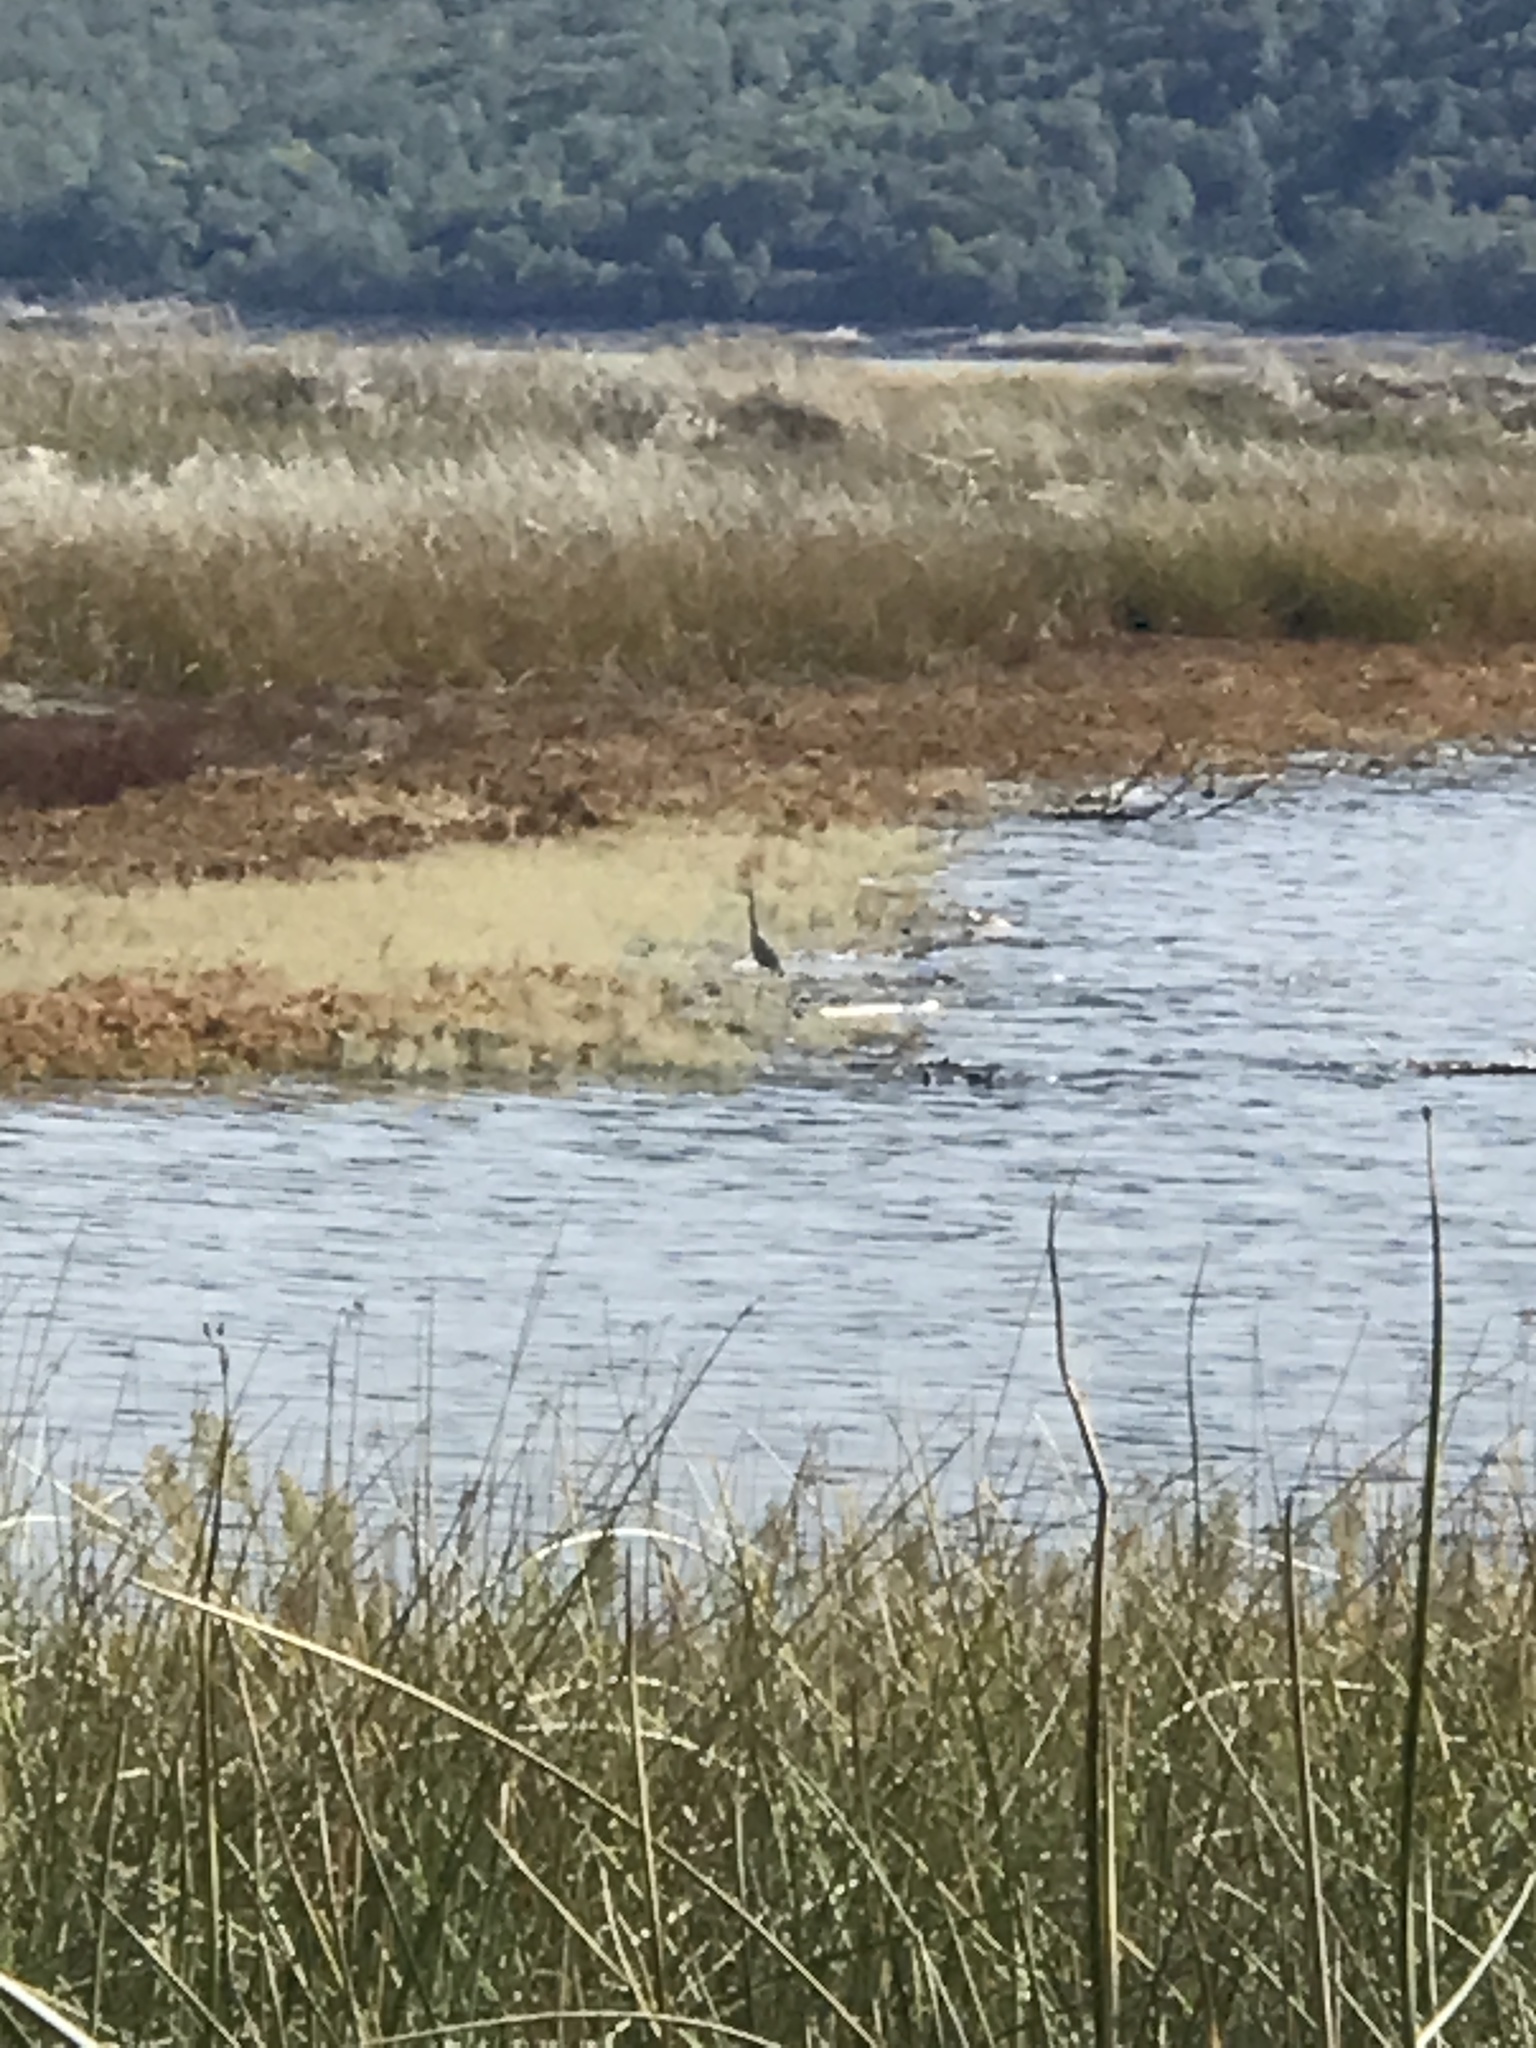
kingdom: Animalia
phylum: Chordata
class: Aves
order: Pelecaniformes
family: Ardeidae
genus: Ardea
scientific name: Ardea herodias
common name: Great blue heron
